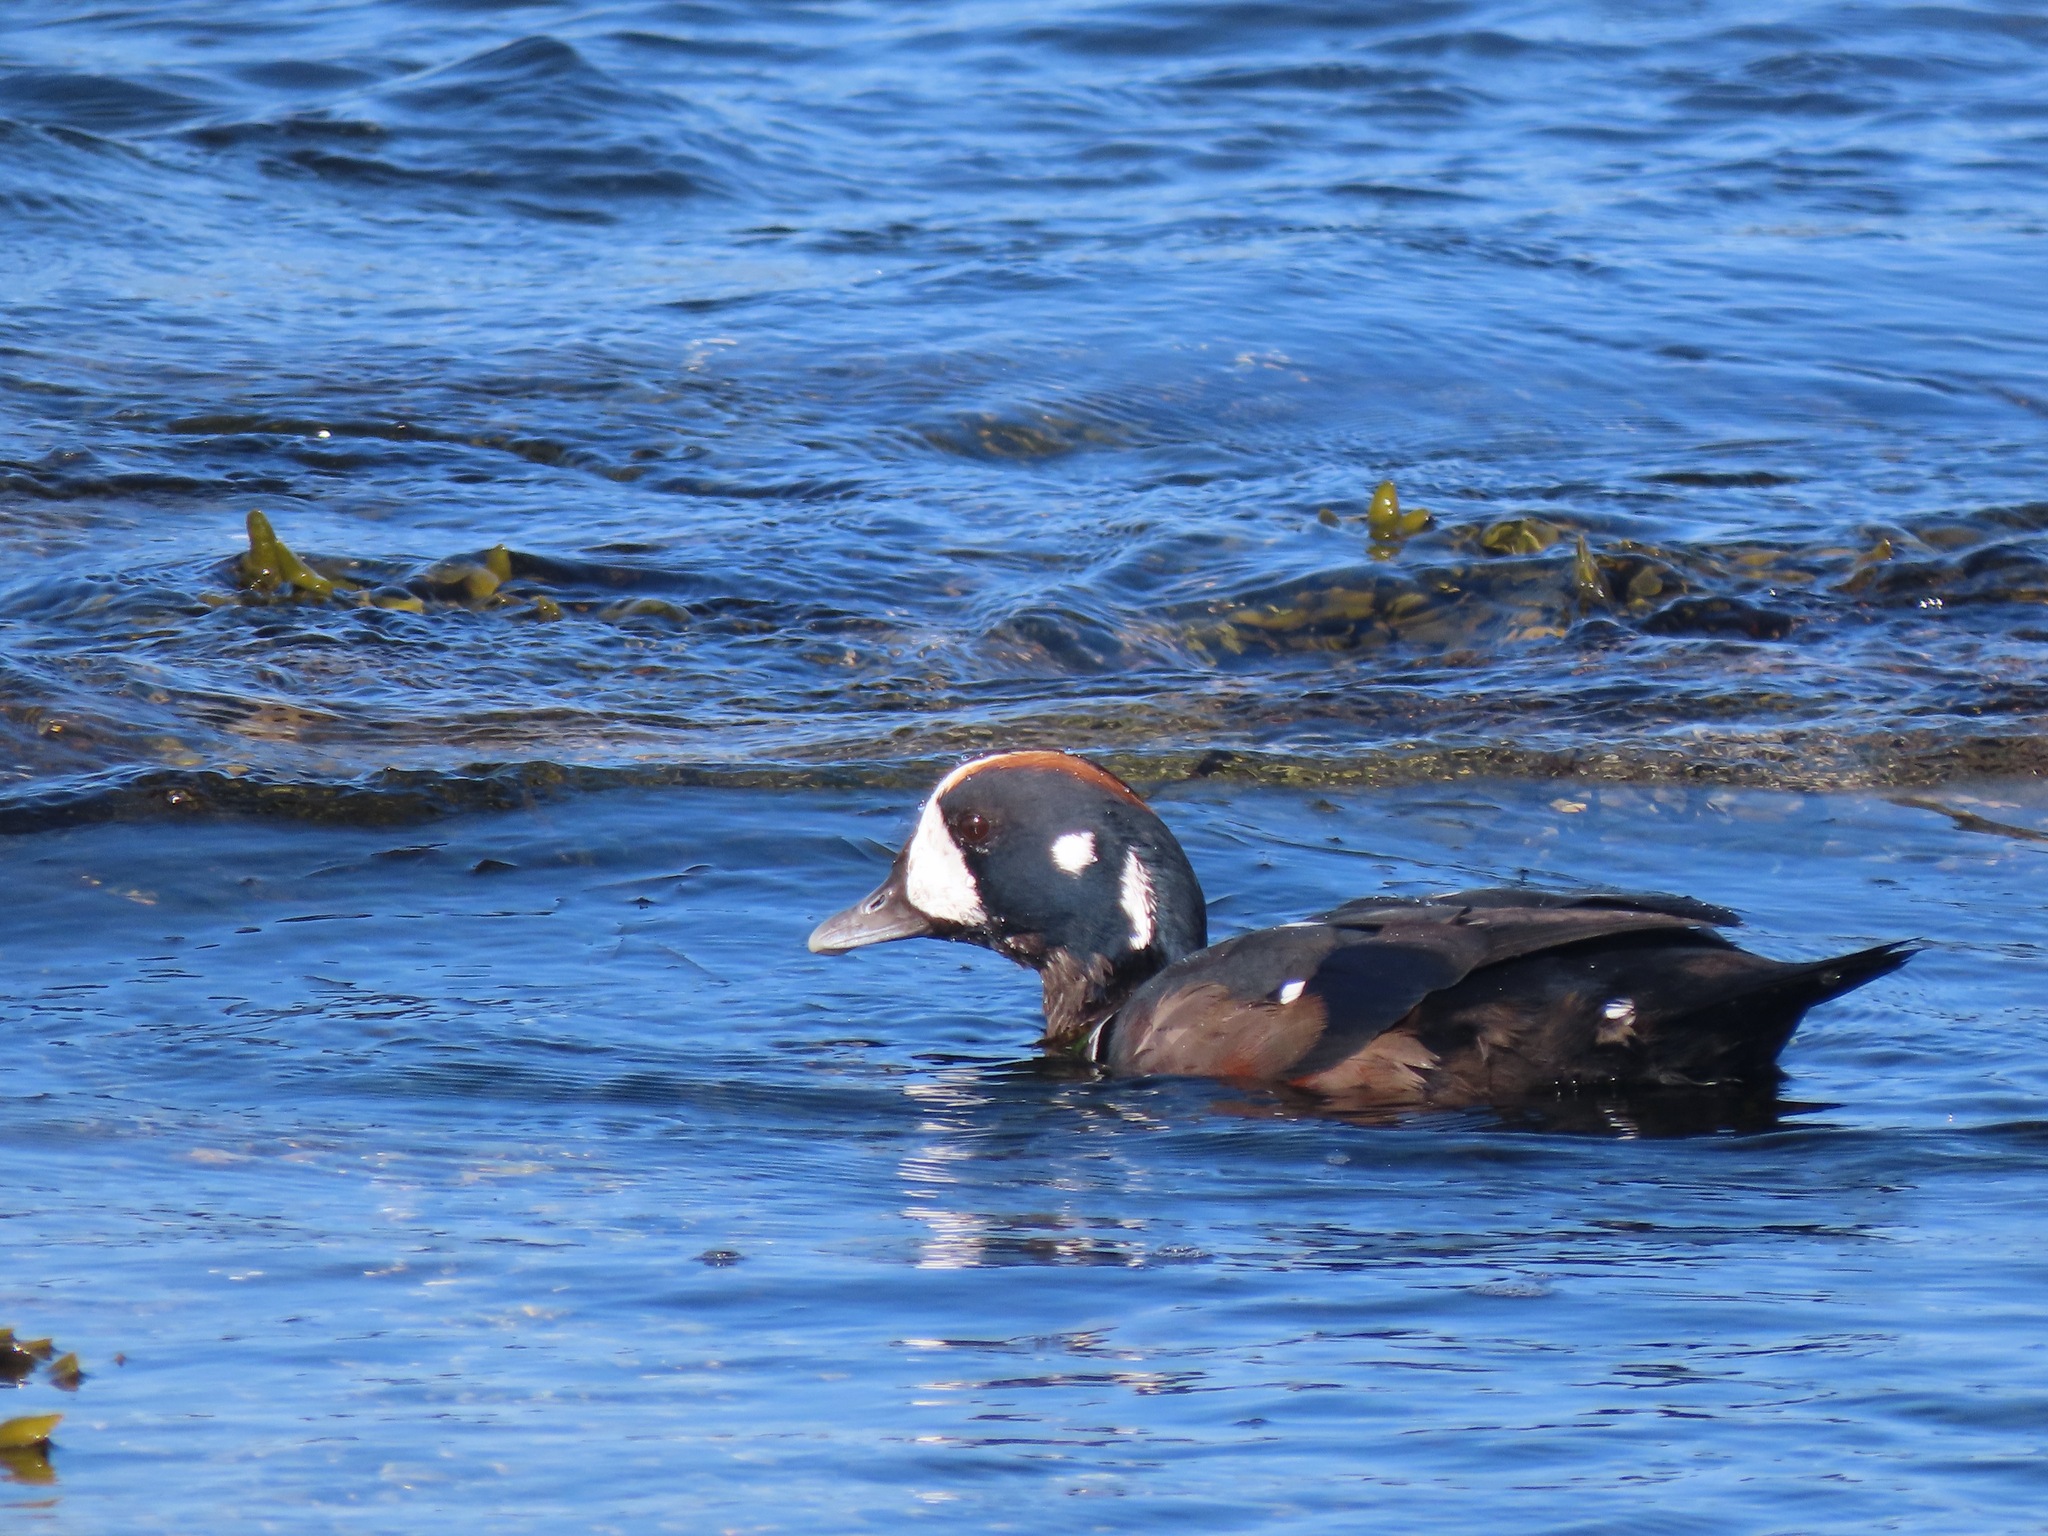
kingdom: Animalia
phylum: Chordata
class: Aves
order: Anseriformes
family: Anatidae
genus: Histrionicus
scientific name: Histrionicus histrionicus
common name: Harlequin duck
